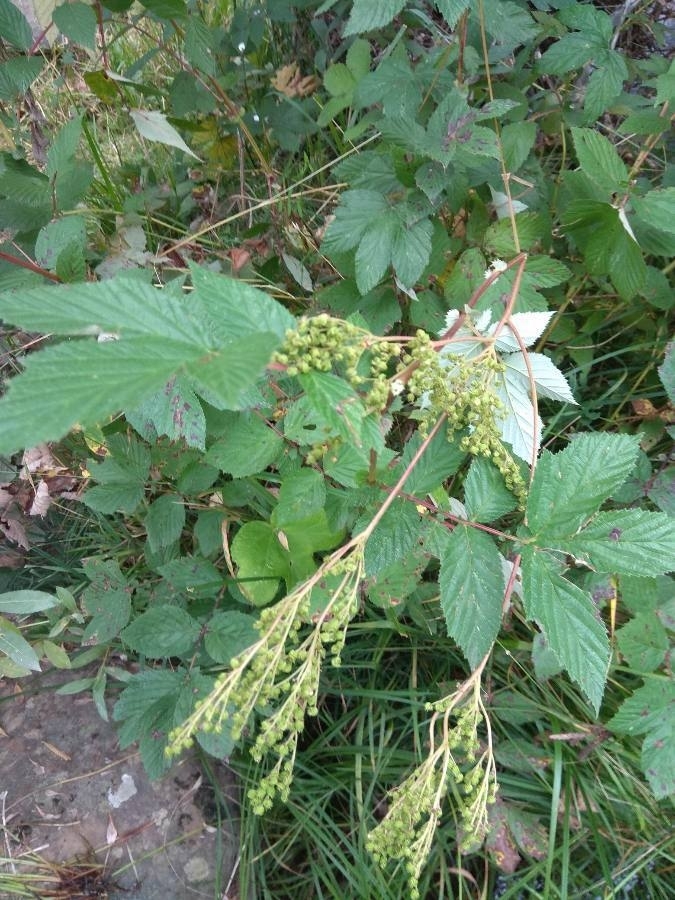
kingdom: Plantae
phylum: Tracheophyta
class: Magnoliopsida
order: Rosales
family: Rosaceae
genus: Filipendula
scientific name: Filipendula ulmaria
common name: Meadowsweet
